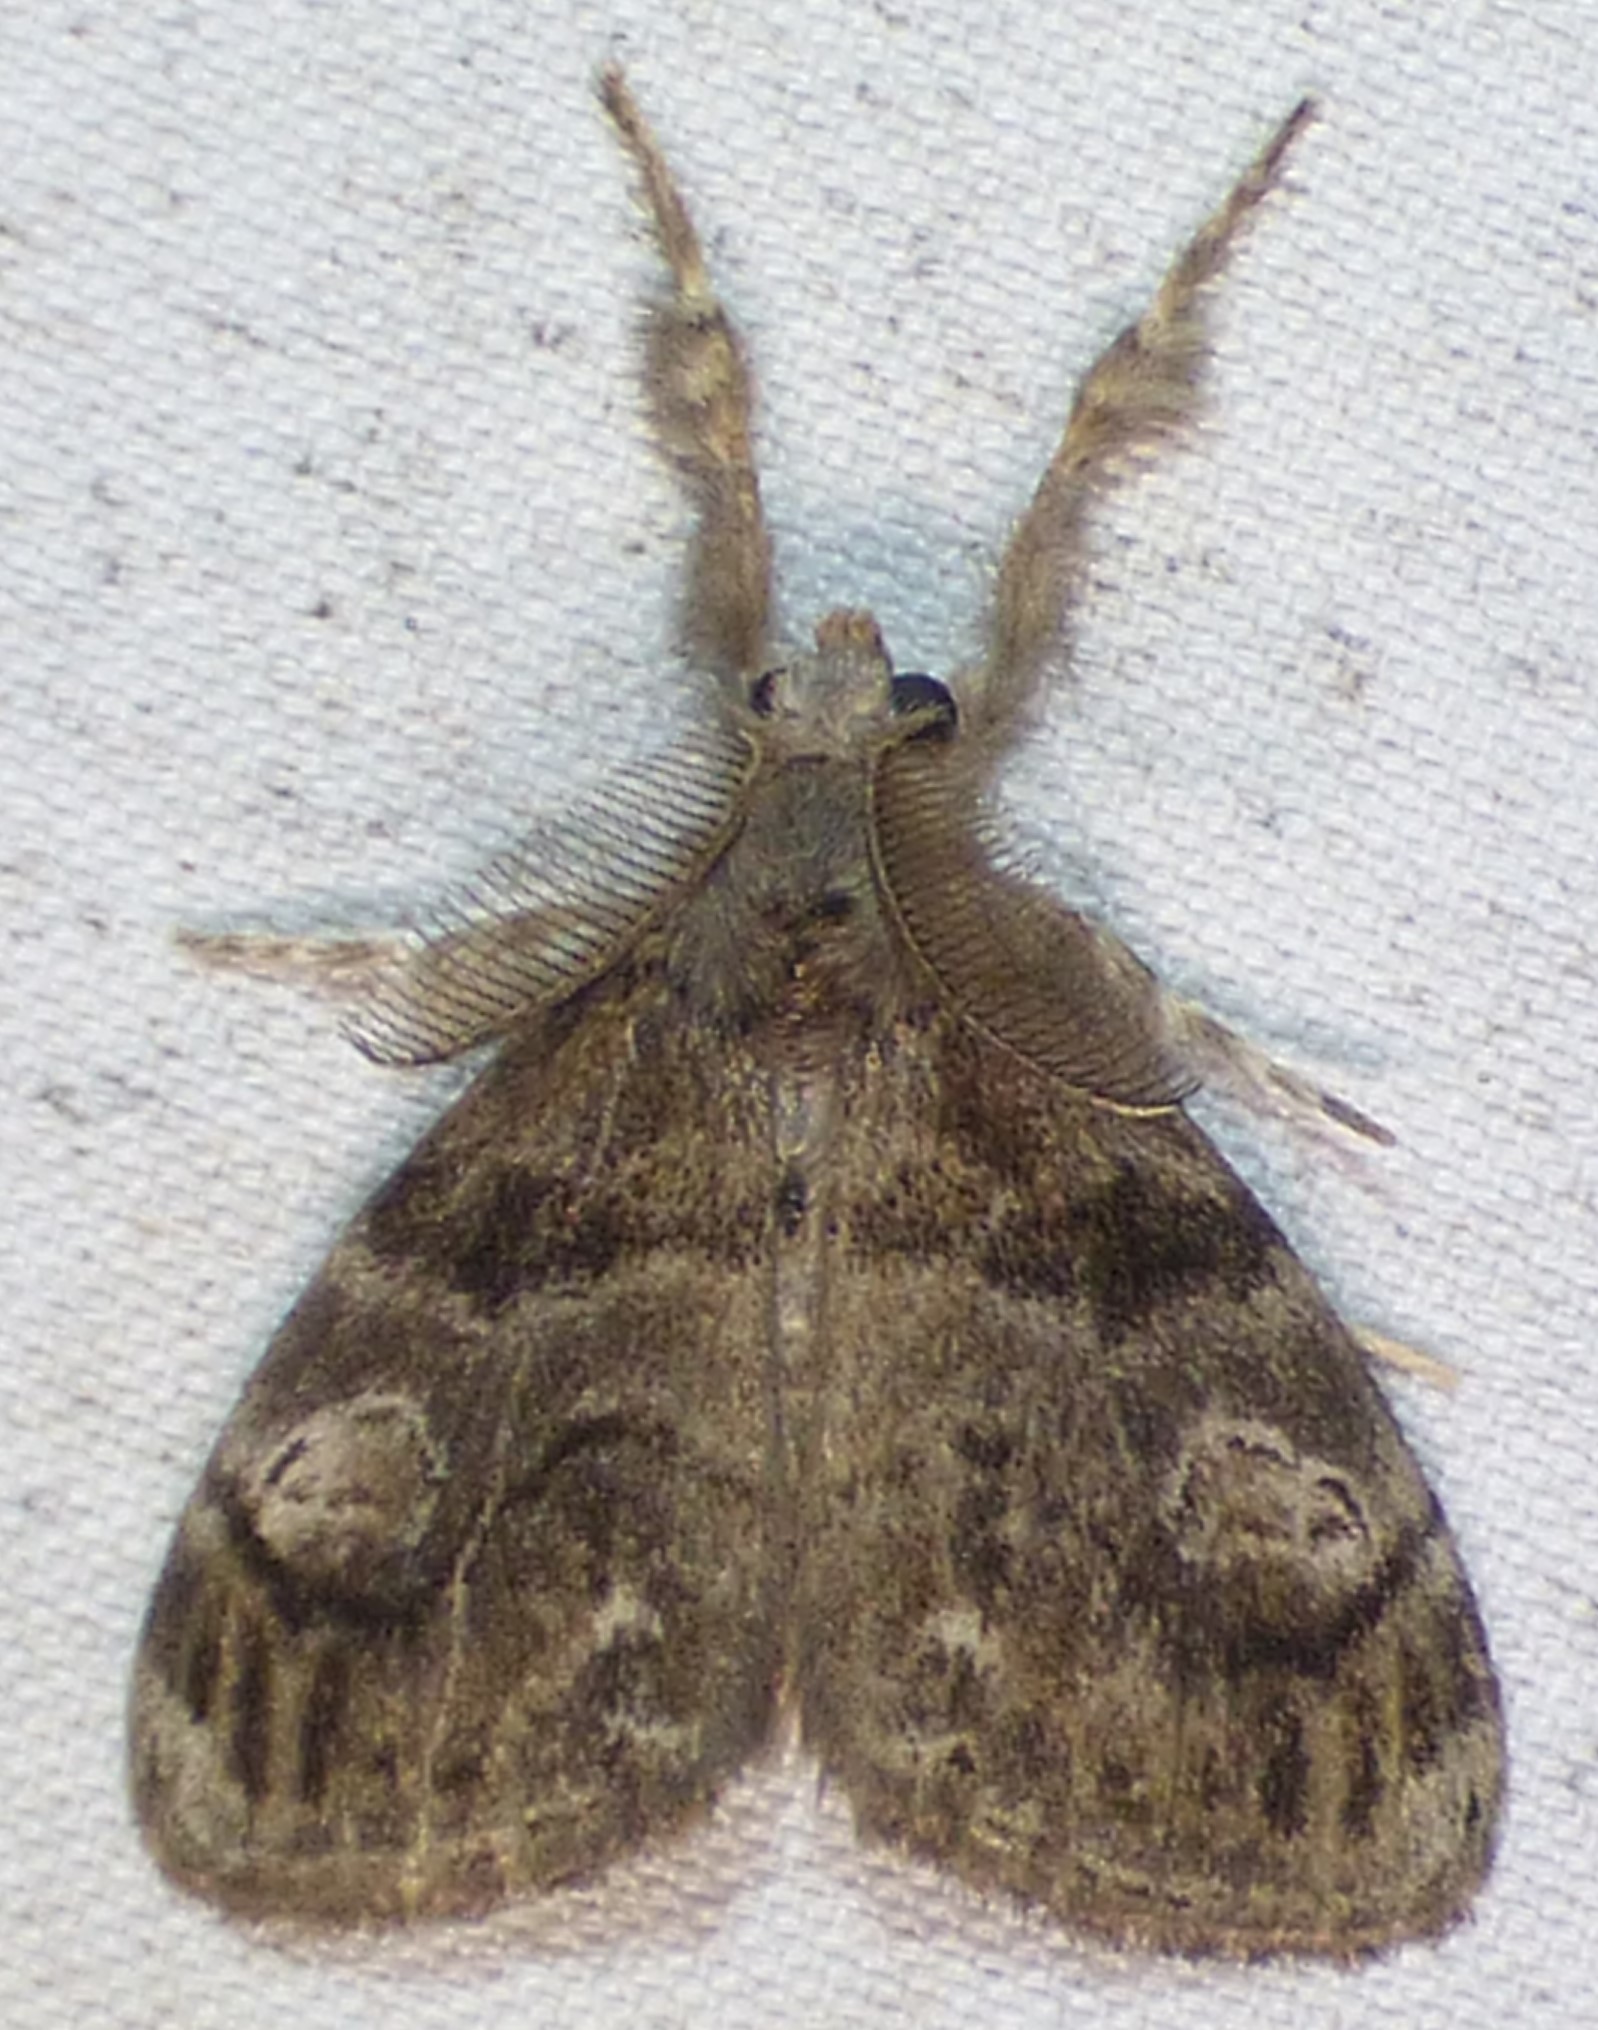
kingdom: Animalia
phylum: Arthropoda
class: Insecta
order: Lepidoptera
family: Erebidae
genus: Orgyia
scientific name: Orgyia definita
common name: Definite tussock moth
